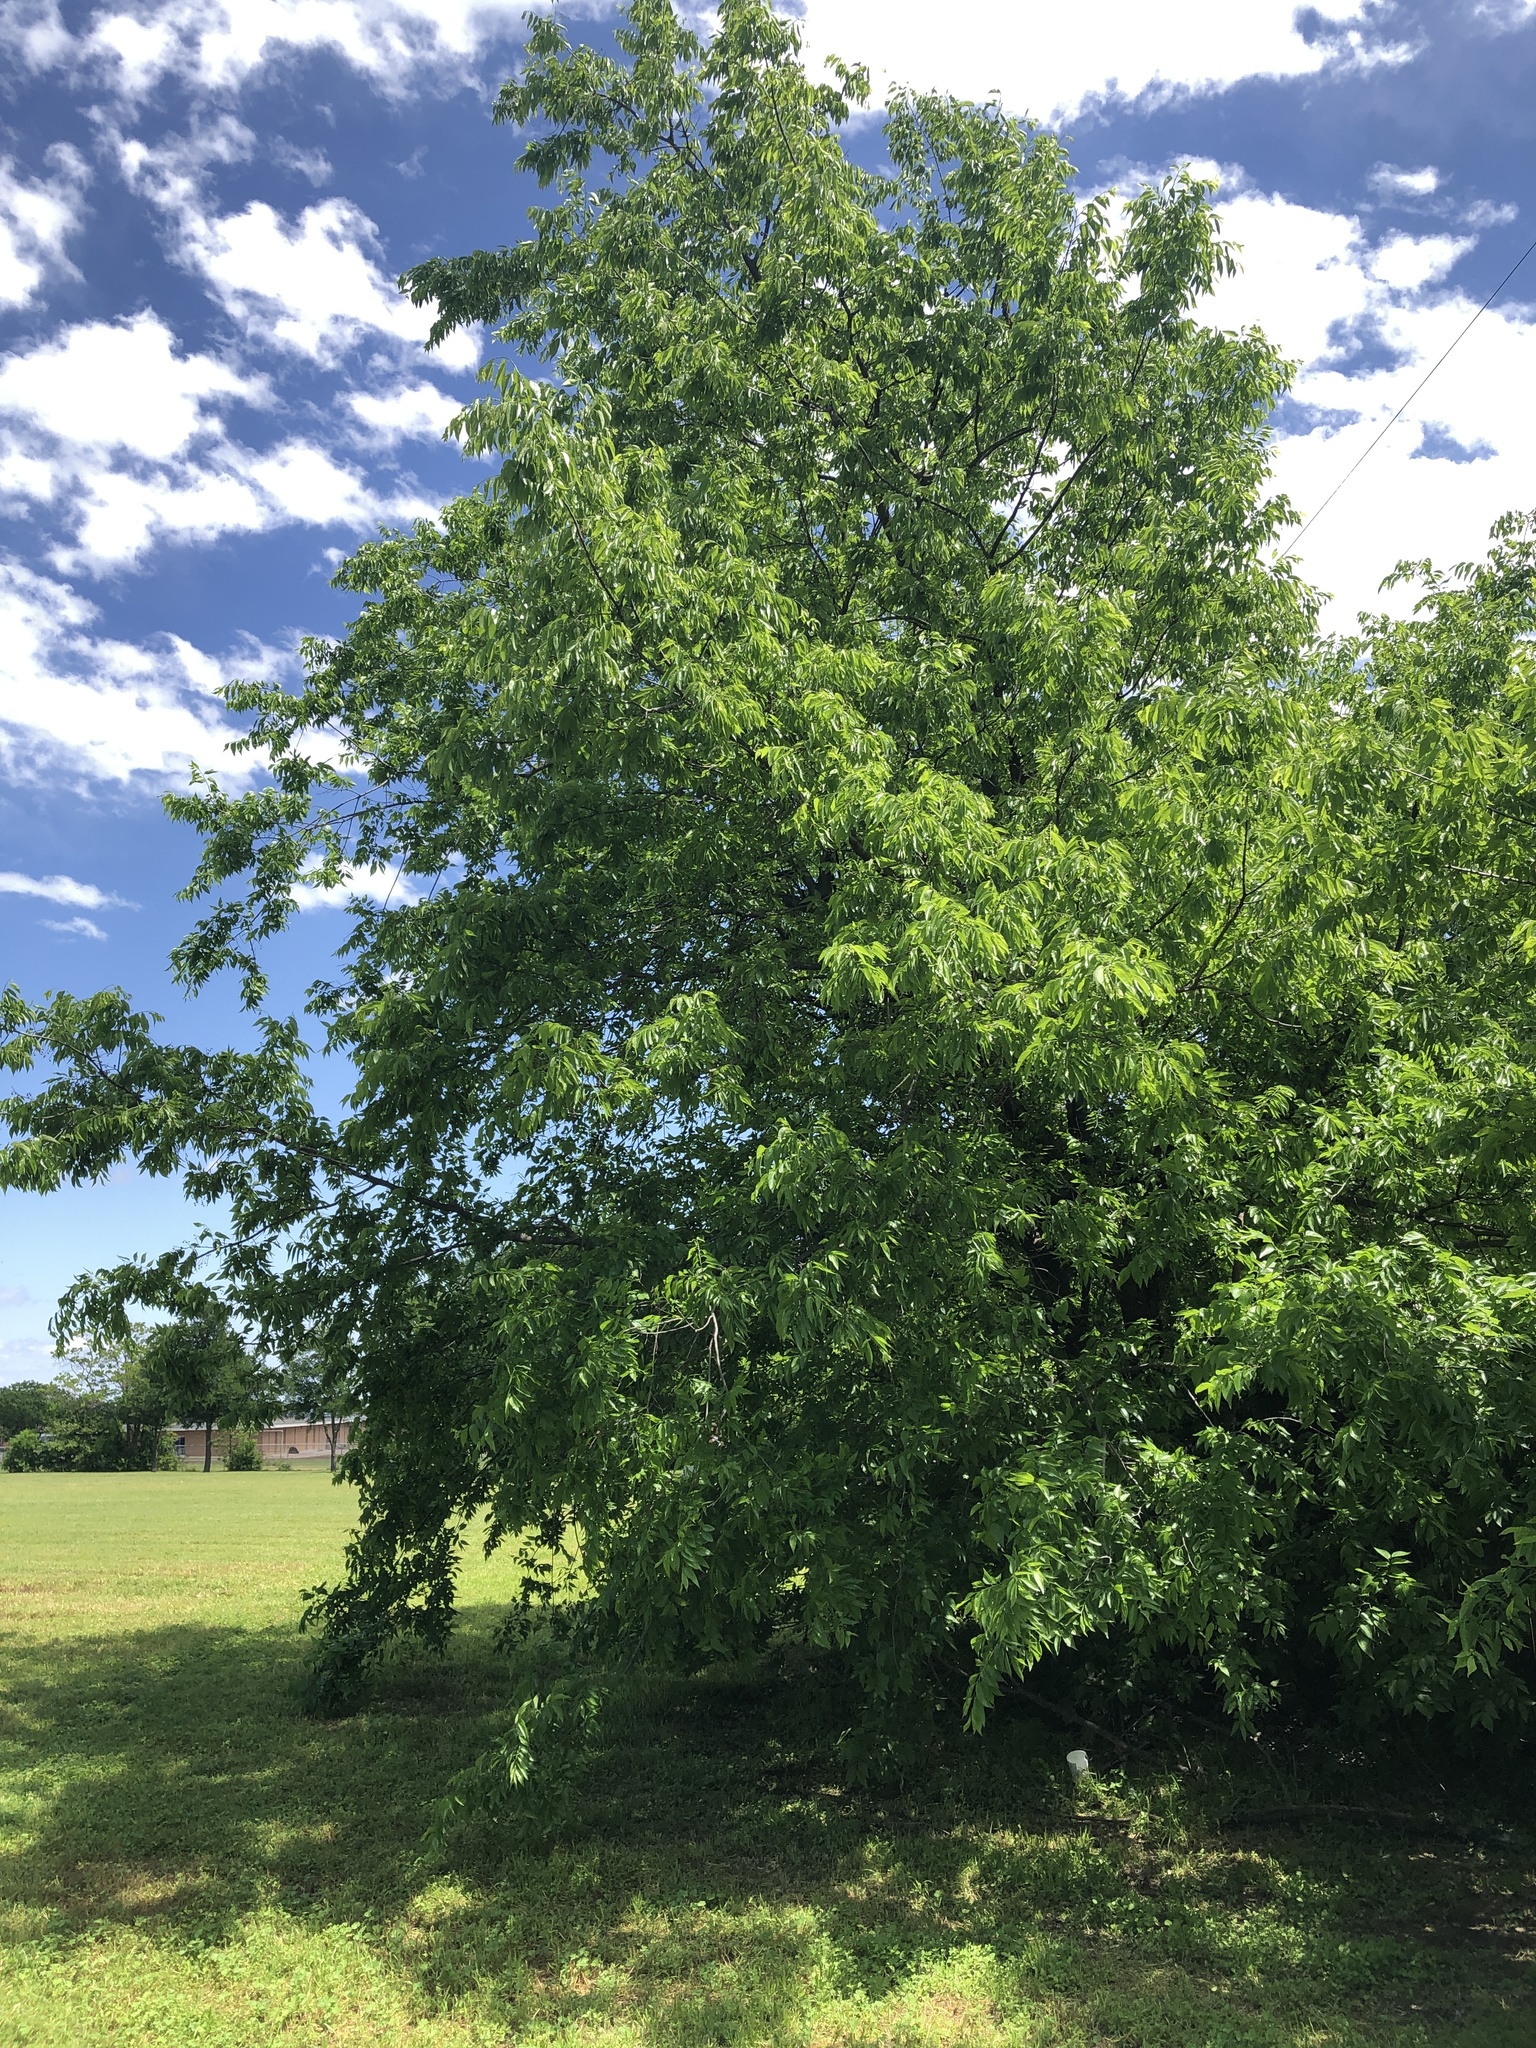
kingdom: Plantae
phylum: Tracheophyta
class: Magnoliopsida
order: Rosales
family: Cannabaceae
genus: Celtis
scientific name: Celtis laevigata
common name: Sugarberry
